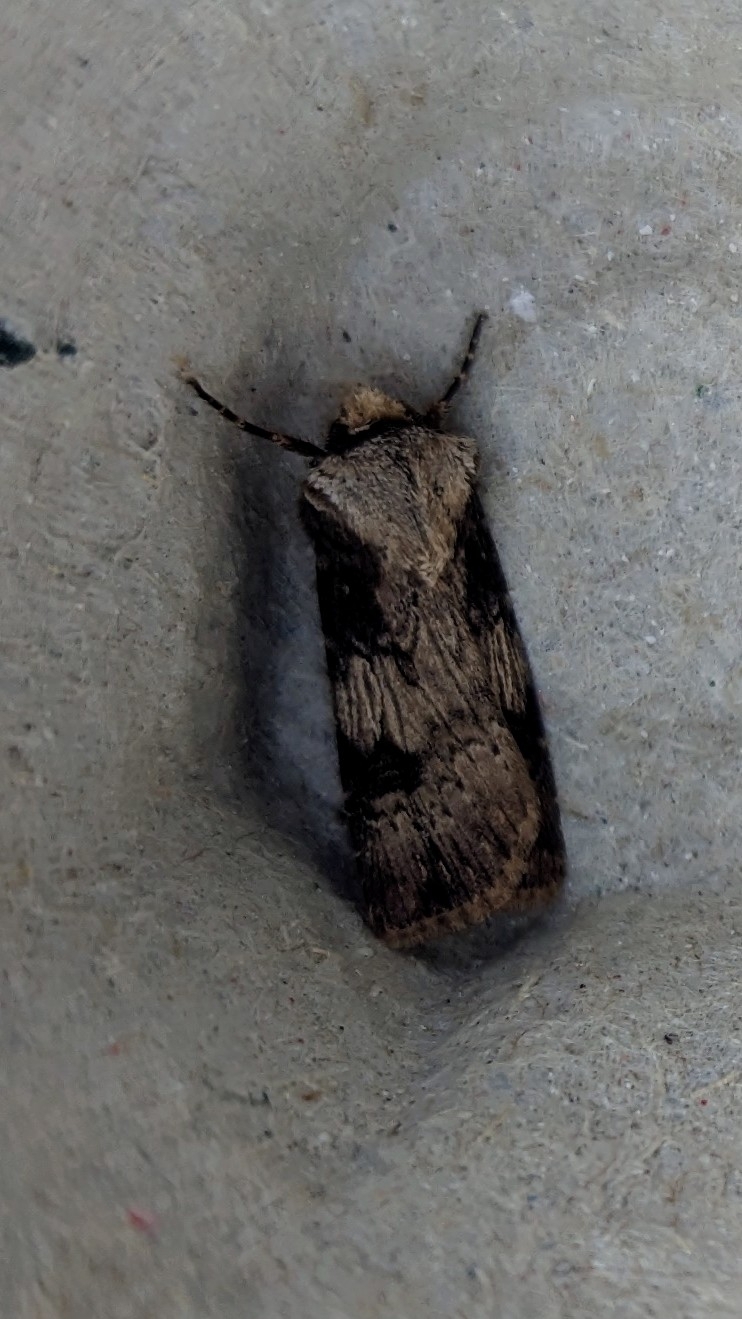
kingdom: Animalia
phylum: Arthropoda
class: Insecta
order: Lepidoptera
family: Noctuidae
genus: Agrotis
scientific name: Agrotis puta
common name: Shuttle-shaped dart
